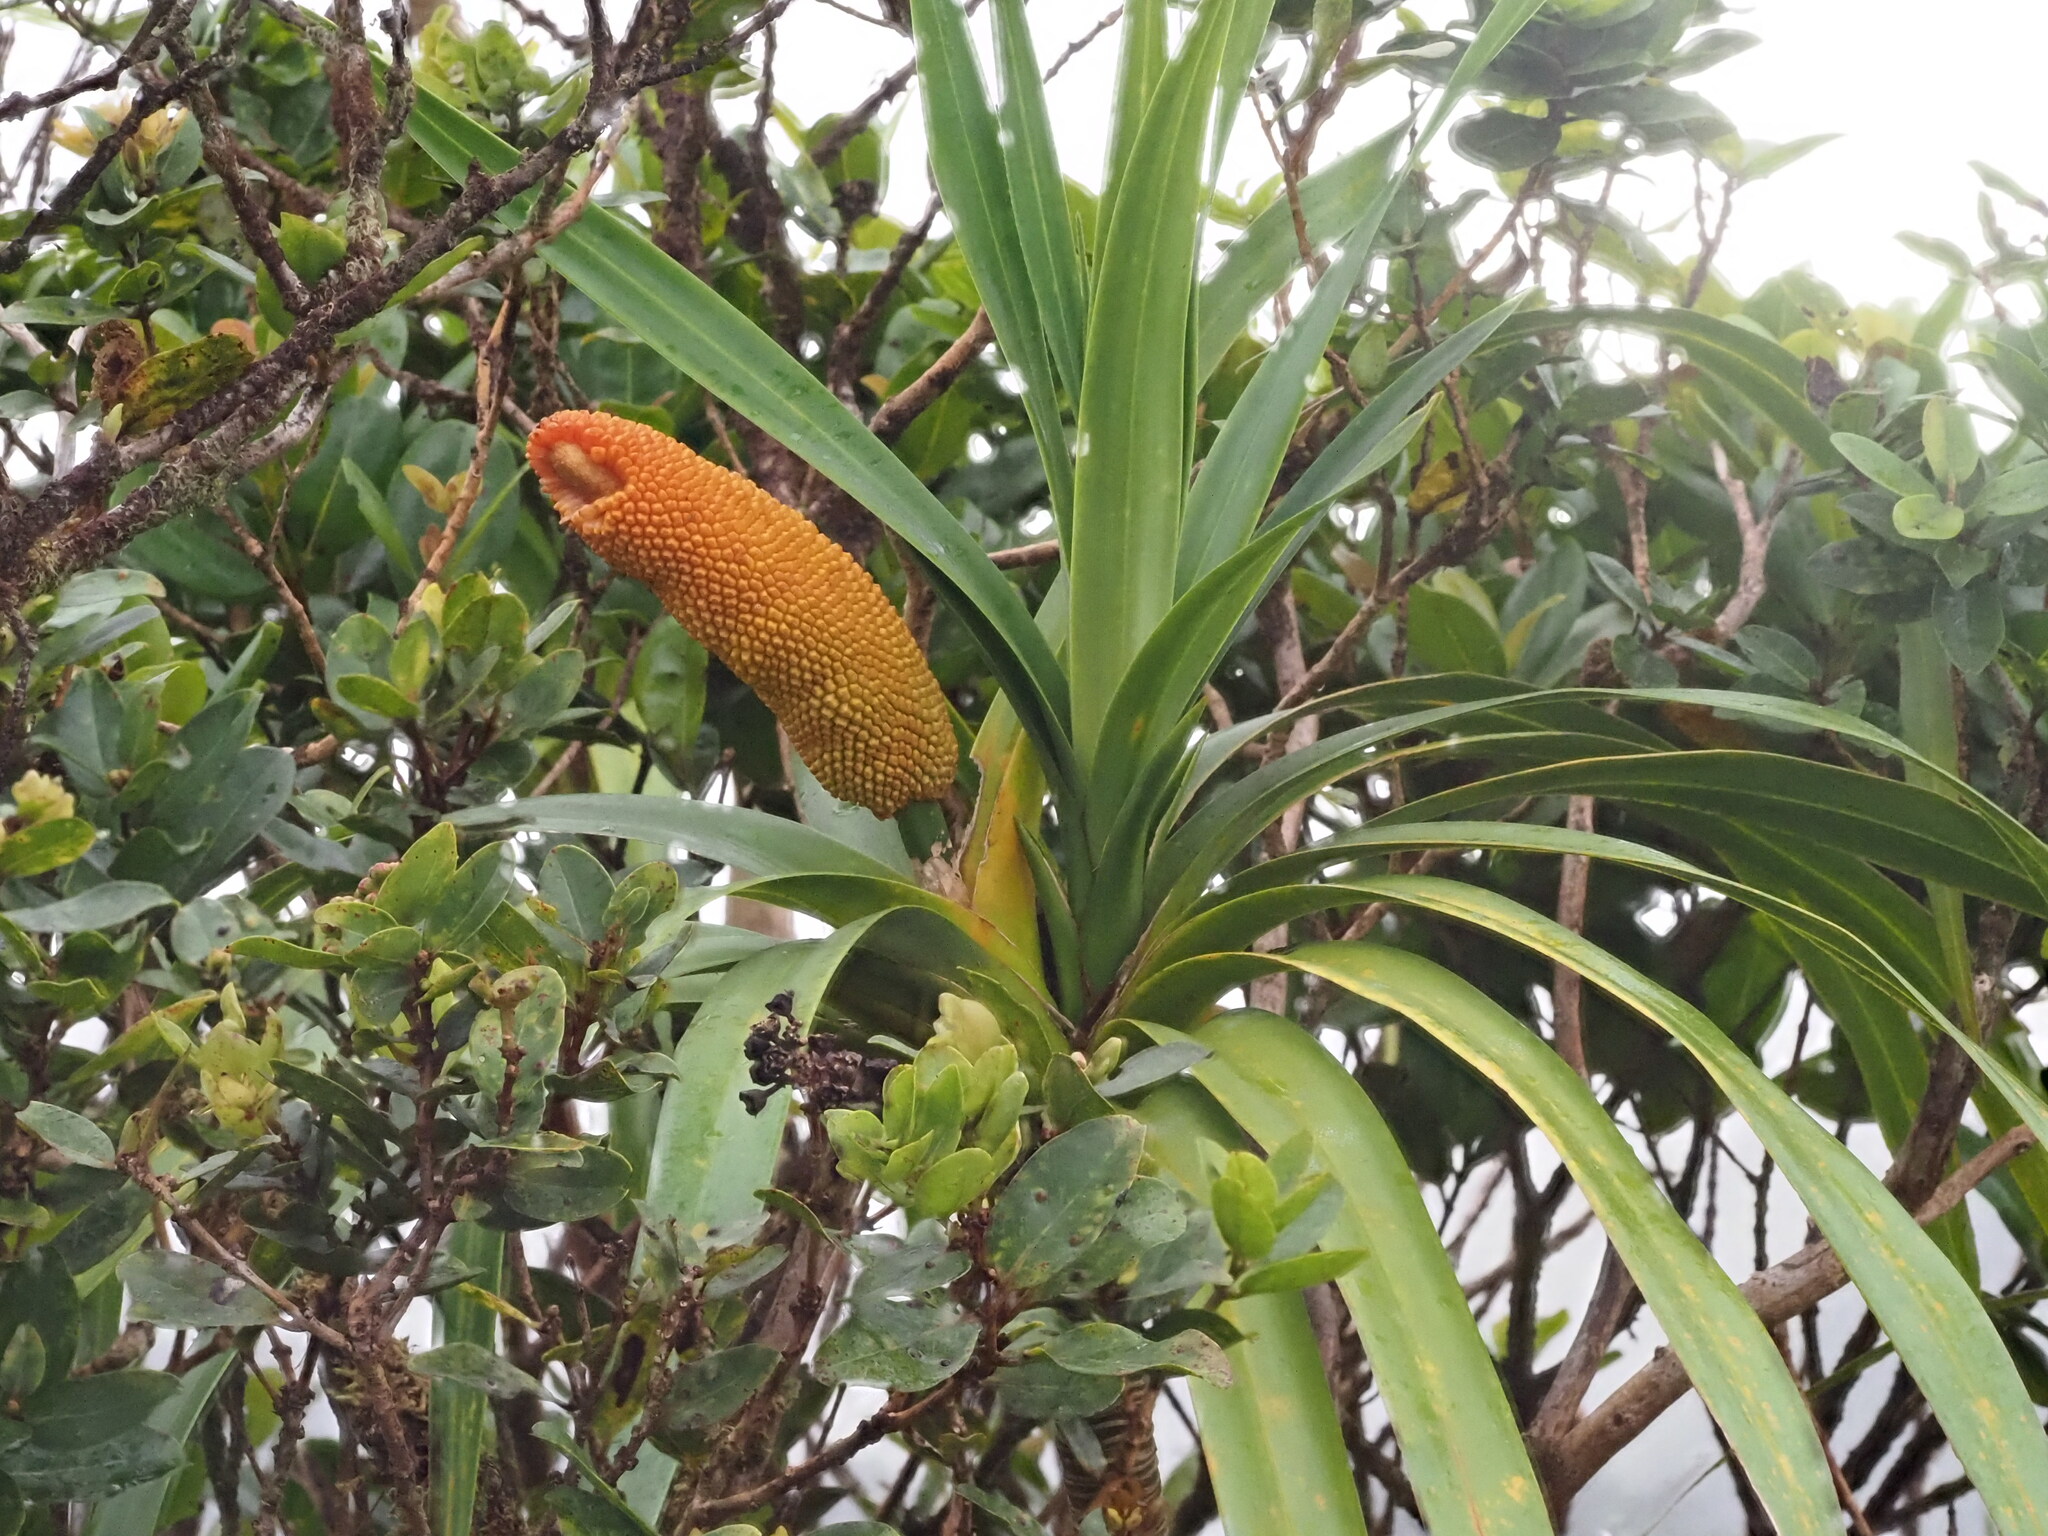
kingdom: Plantae
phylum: Tracheophyta
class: Liliopsida
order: Pandanales
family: Pandanaceae
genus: Freycinetia
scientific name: Freycinetia arborea
